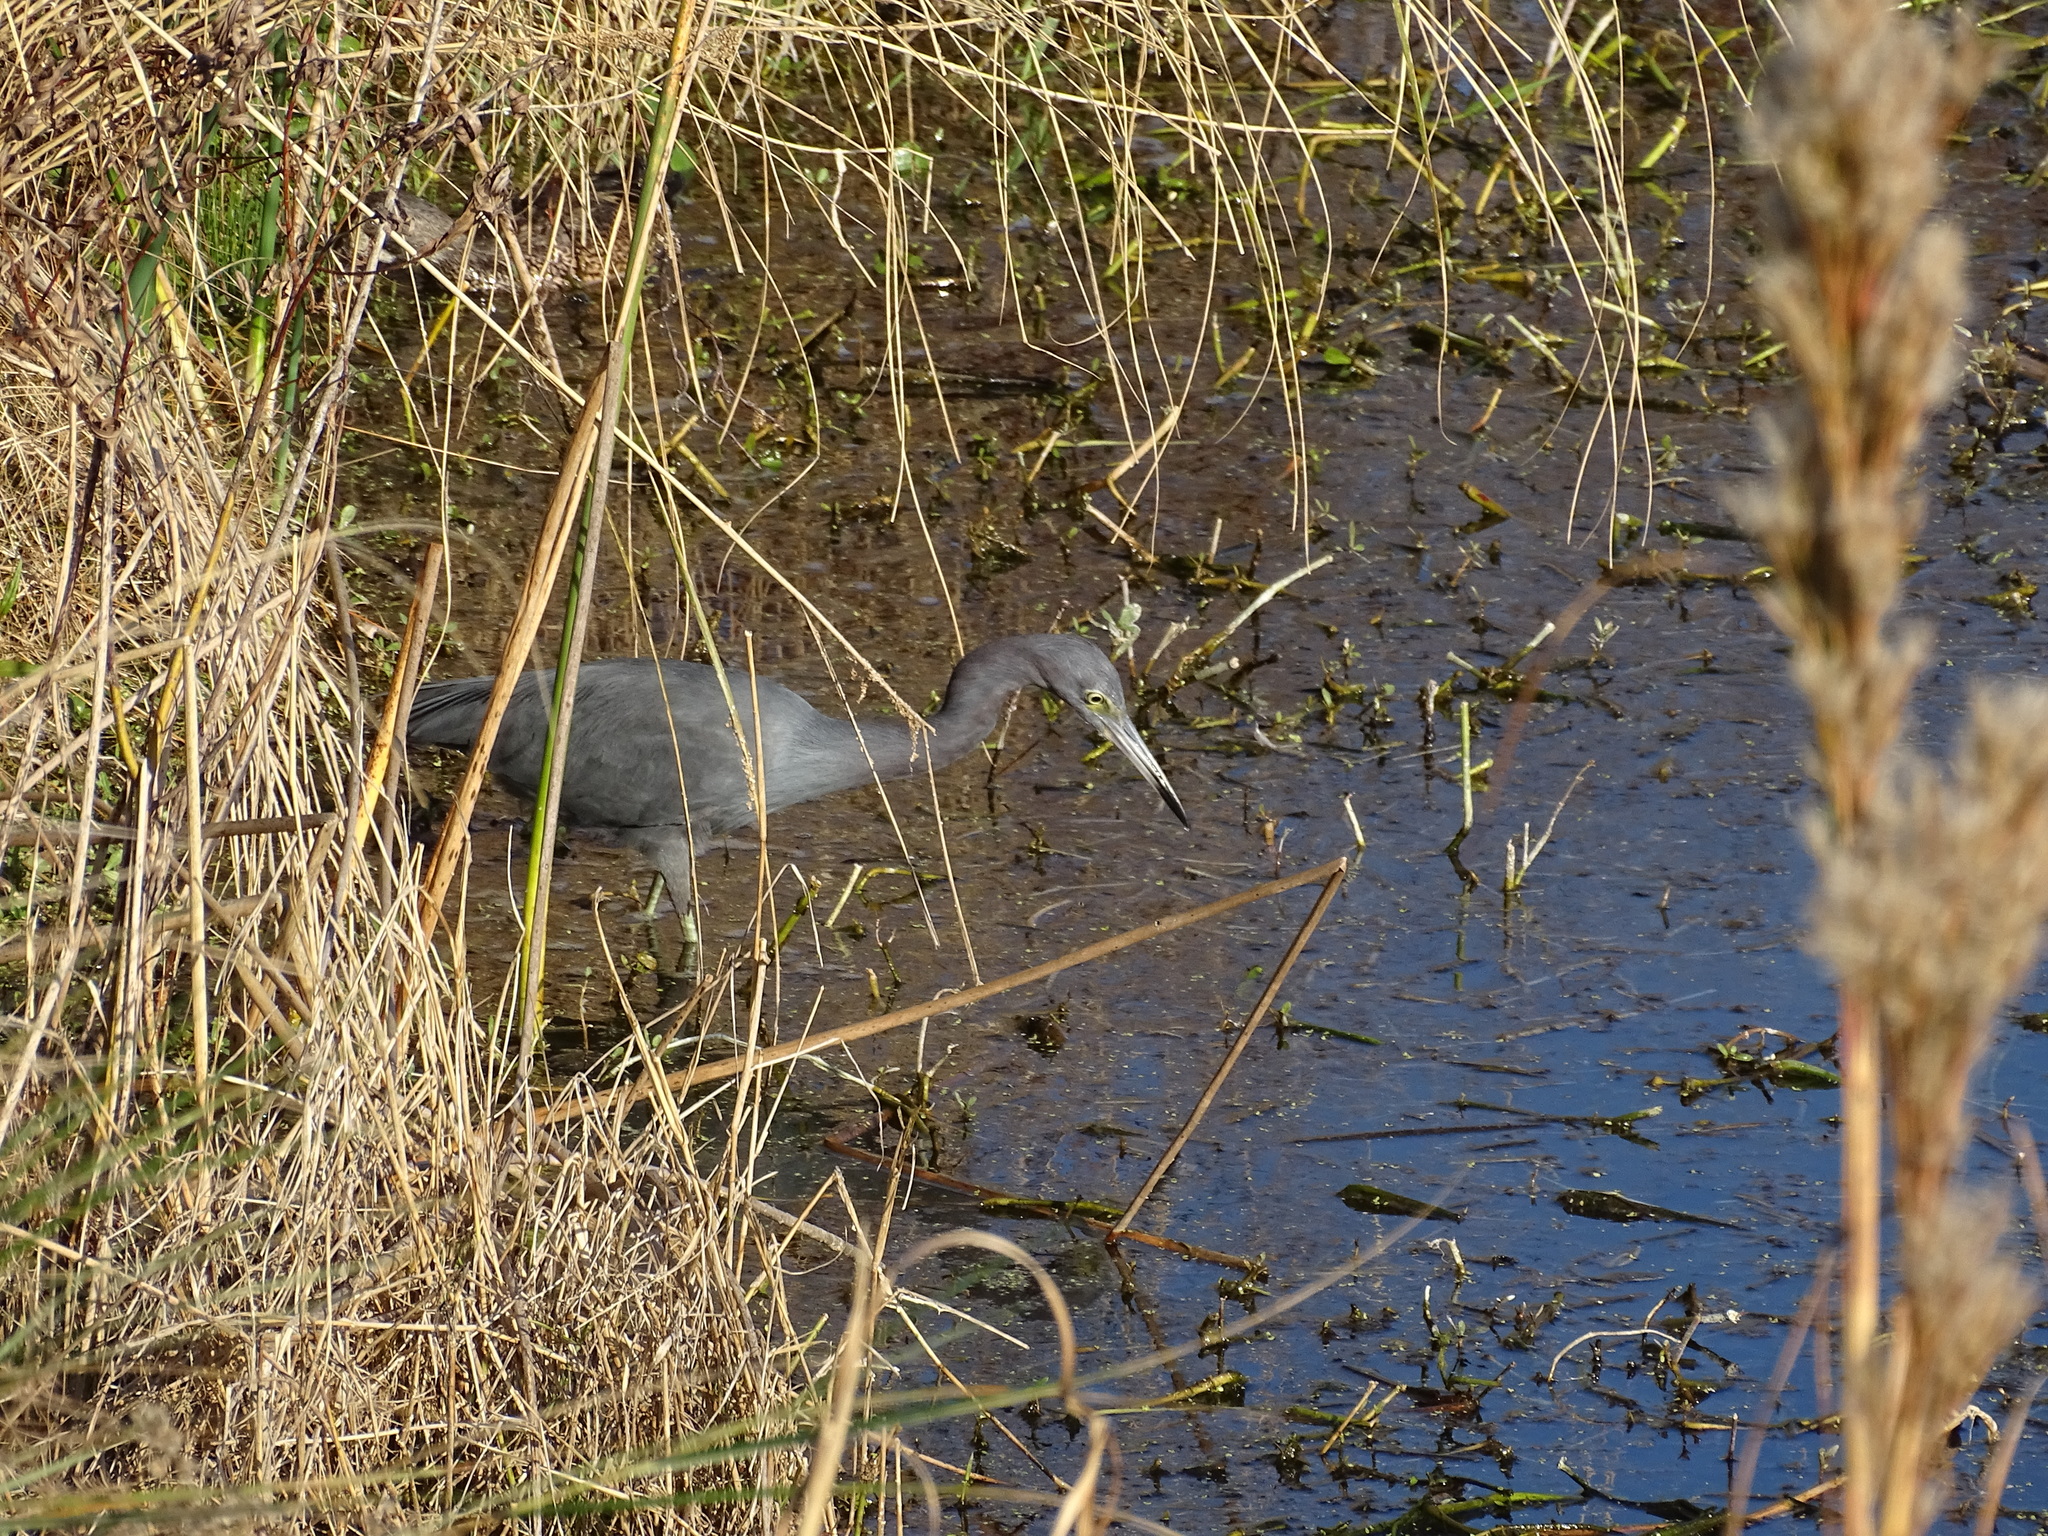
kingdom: Animalia
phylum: Chordata
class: Aves
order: Pelecaniformes
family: Ardeidae
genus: Egretta
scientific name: Egretta caerulea
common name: Little blue heron
